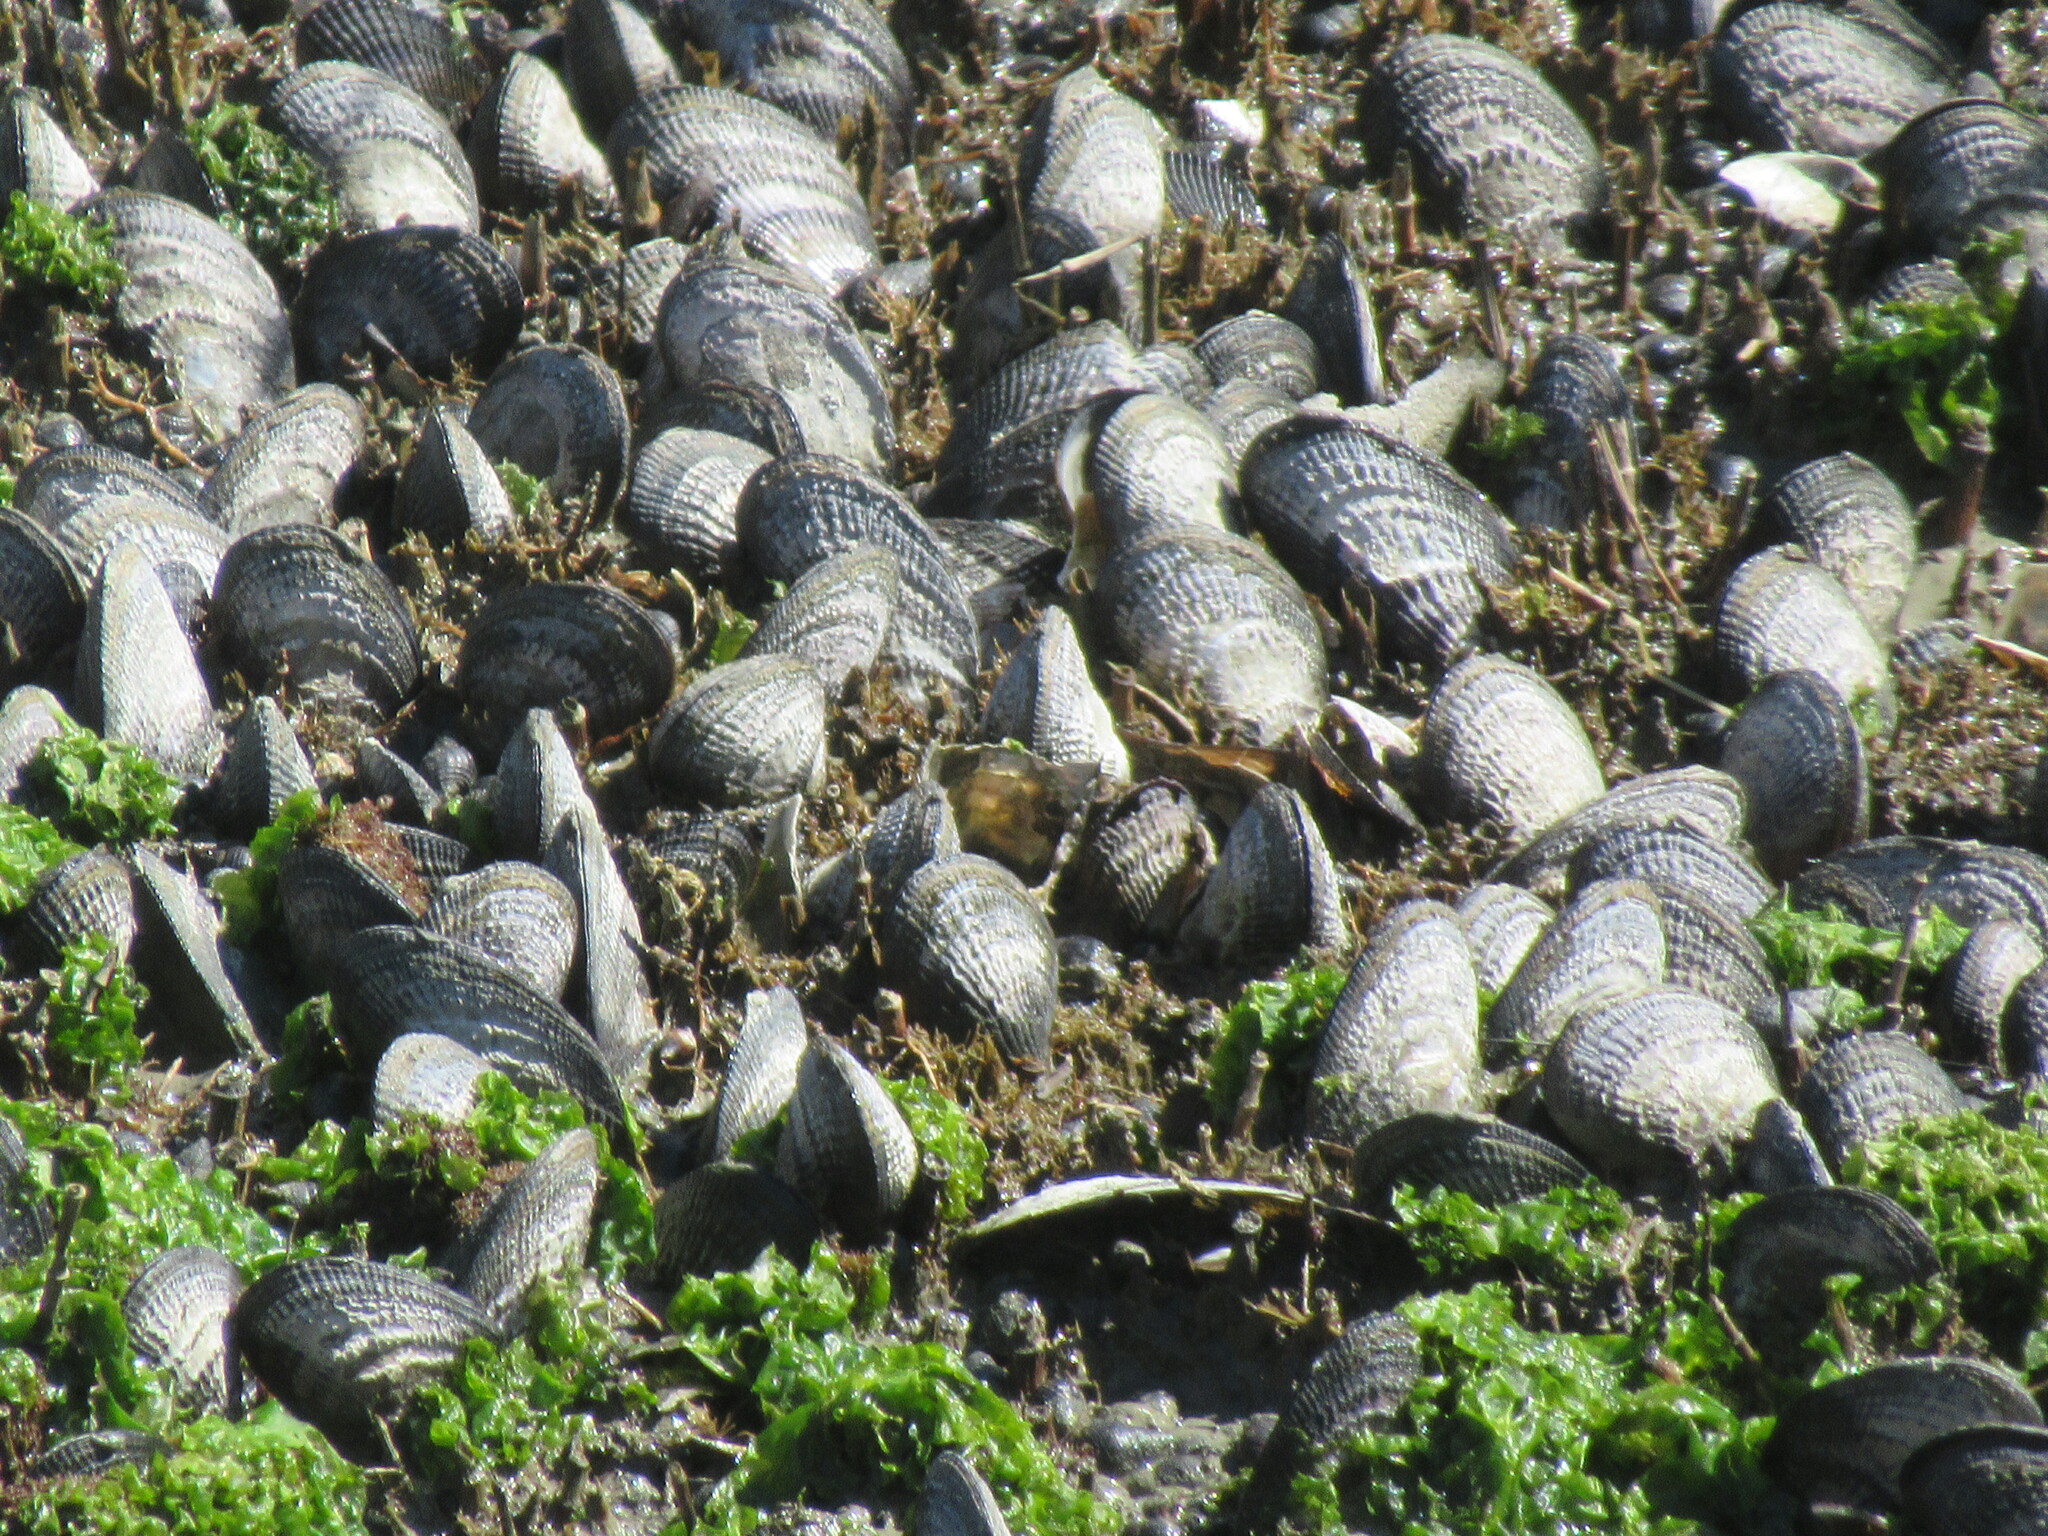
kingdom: Animalia
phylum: Mollusca
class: Bivalvia
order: Mytilida
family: Mytilidae
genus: Geukensia
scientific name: Geukensia demissa
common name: Ribbed mussel
